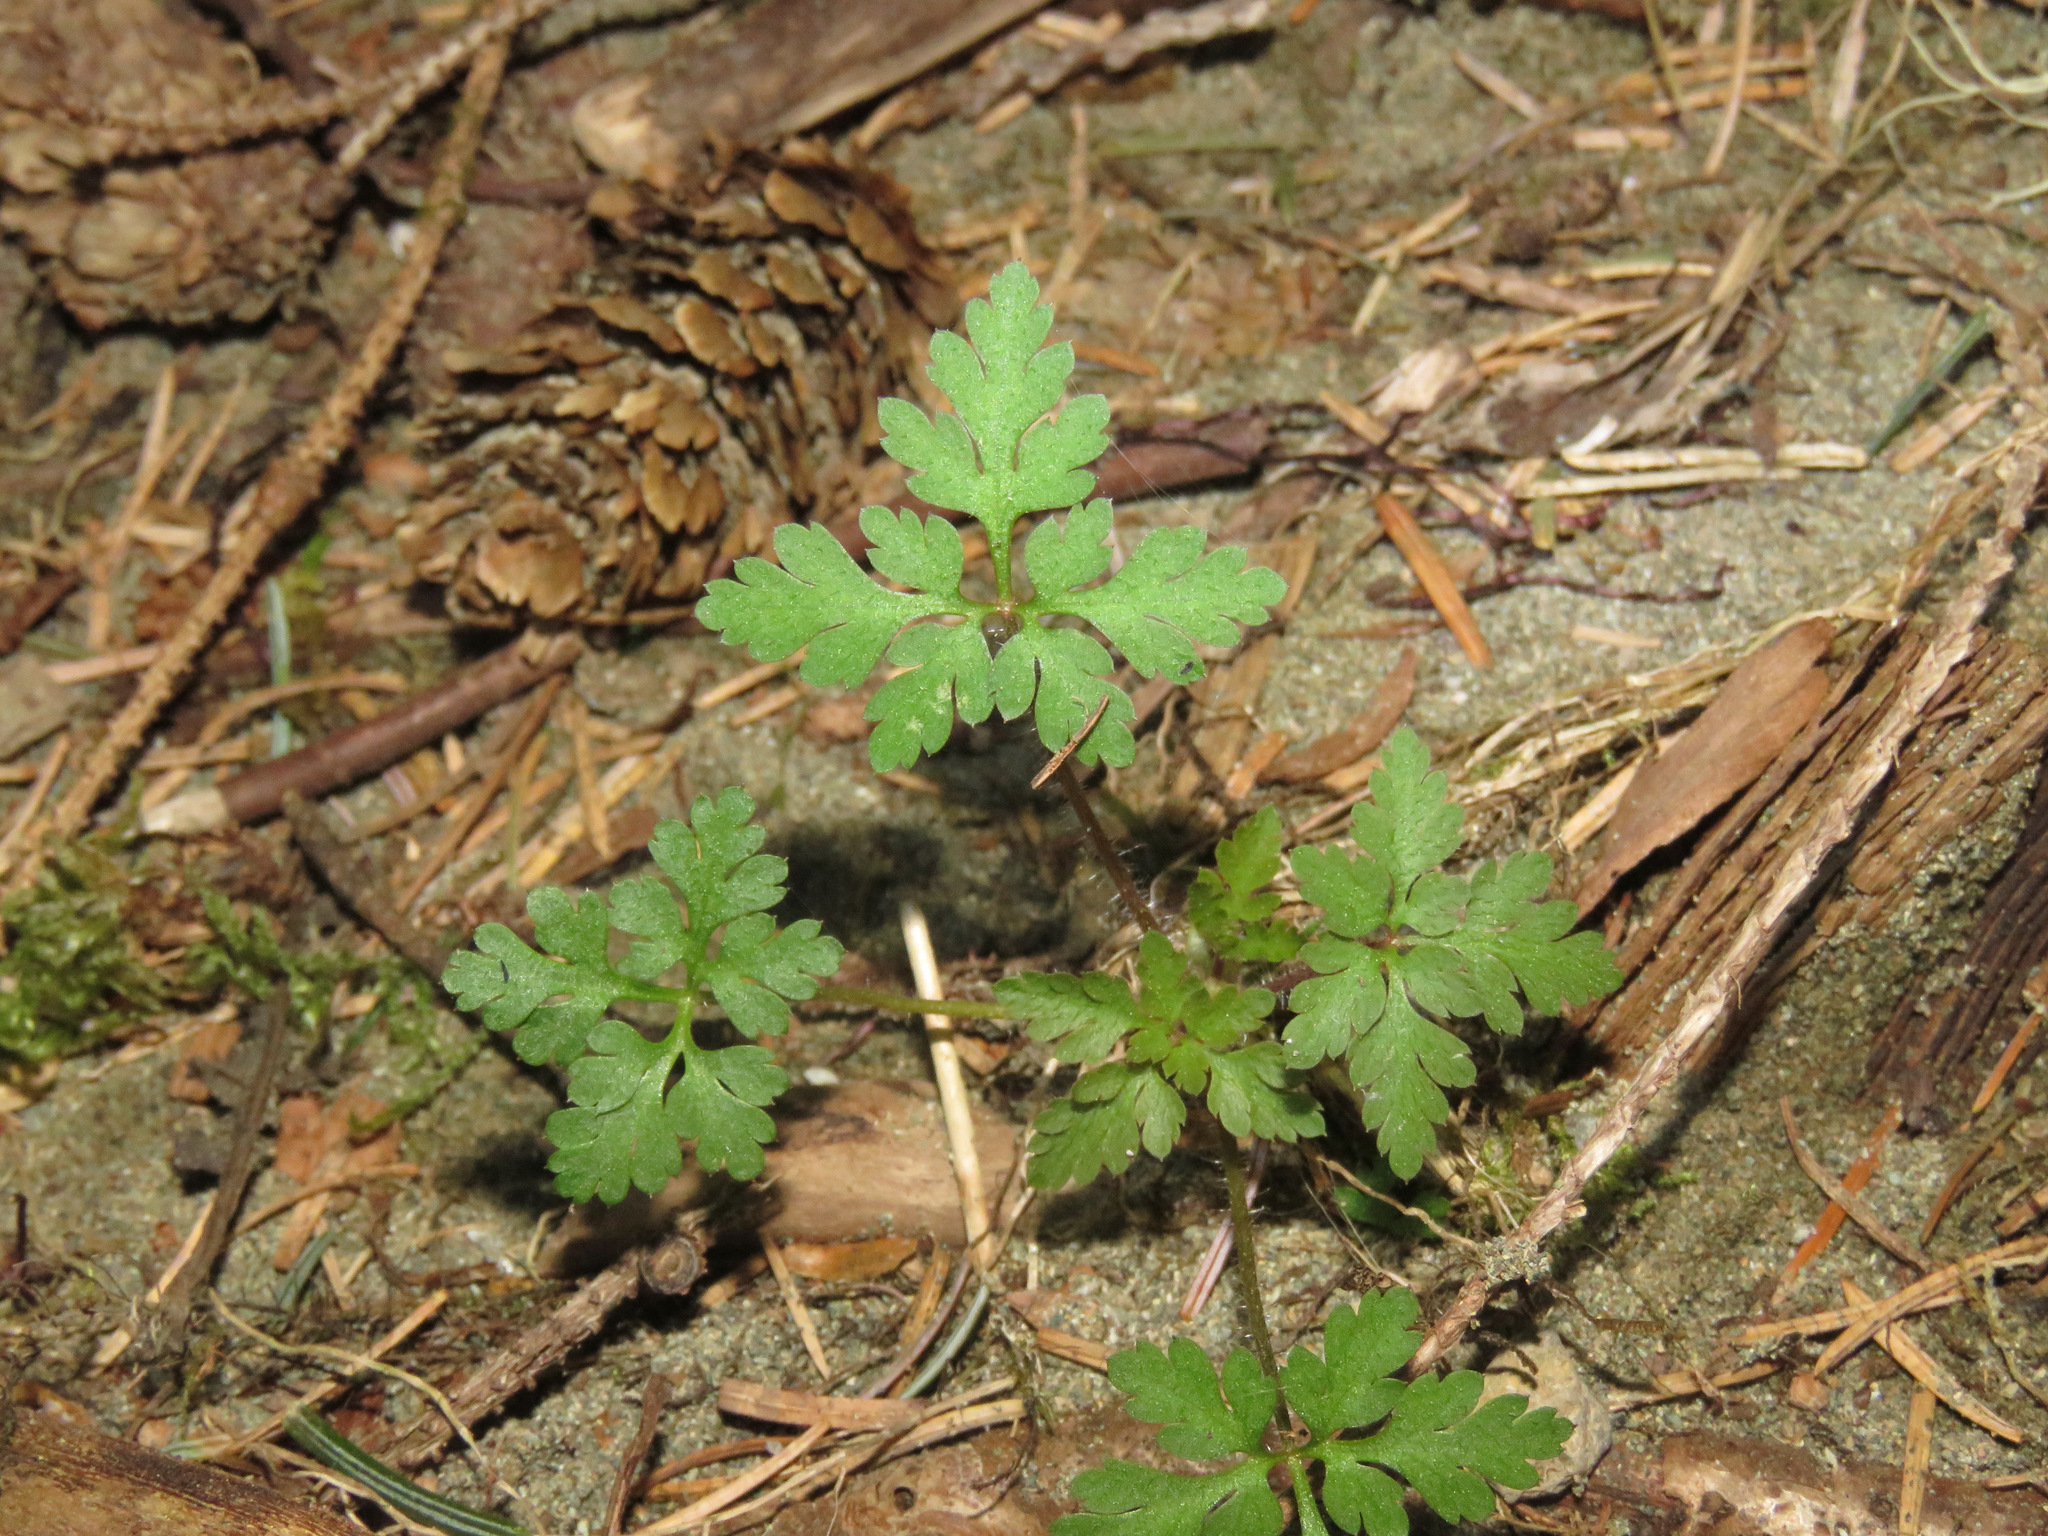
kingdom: Plantae
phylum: Tracheophyta
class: Magnoliopsida
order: Geraniales
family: Geraniaceae
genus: Geranium
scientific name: Geranium robertianum
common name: Herb-robert
